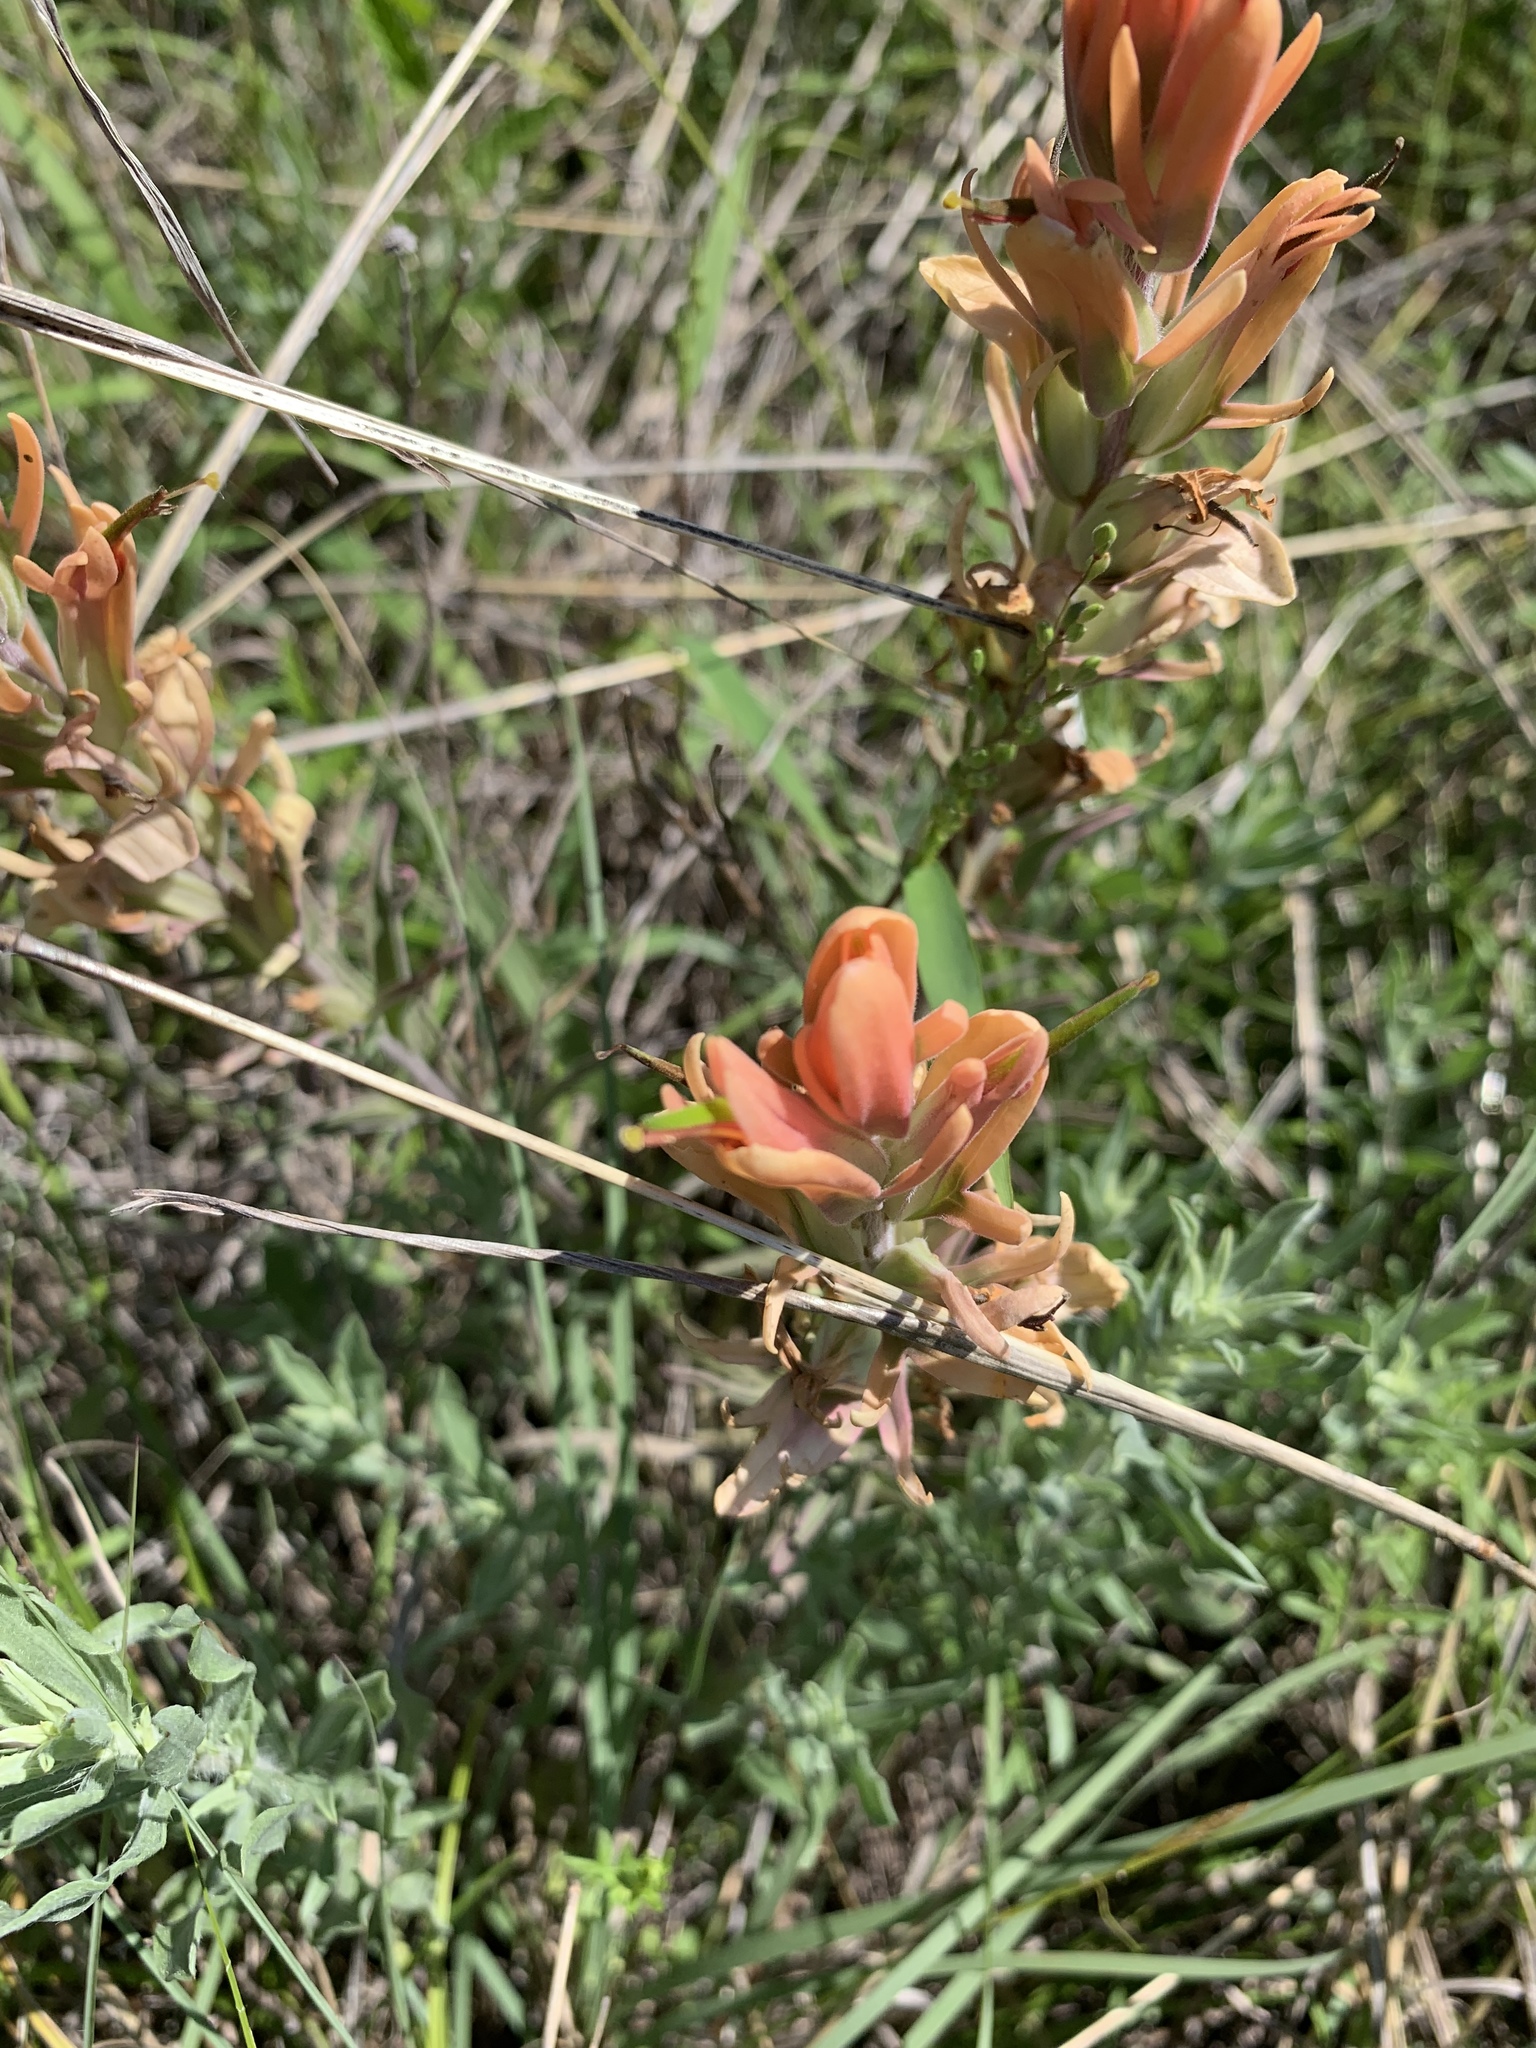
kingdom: Plantae
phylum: Tracheophyta
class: Magnoliopsida
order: Lamiales
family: Orobanchaceae
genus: Castilleja
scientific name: Castilleja lindheimeri
